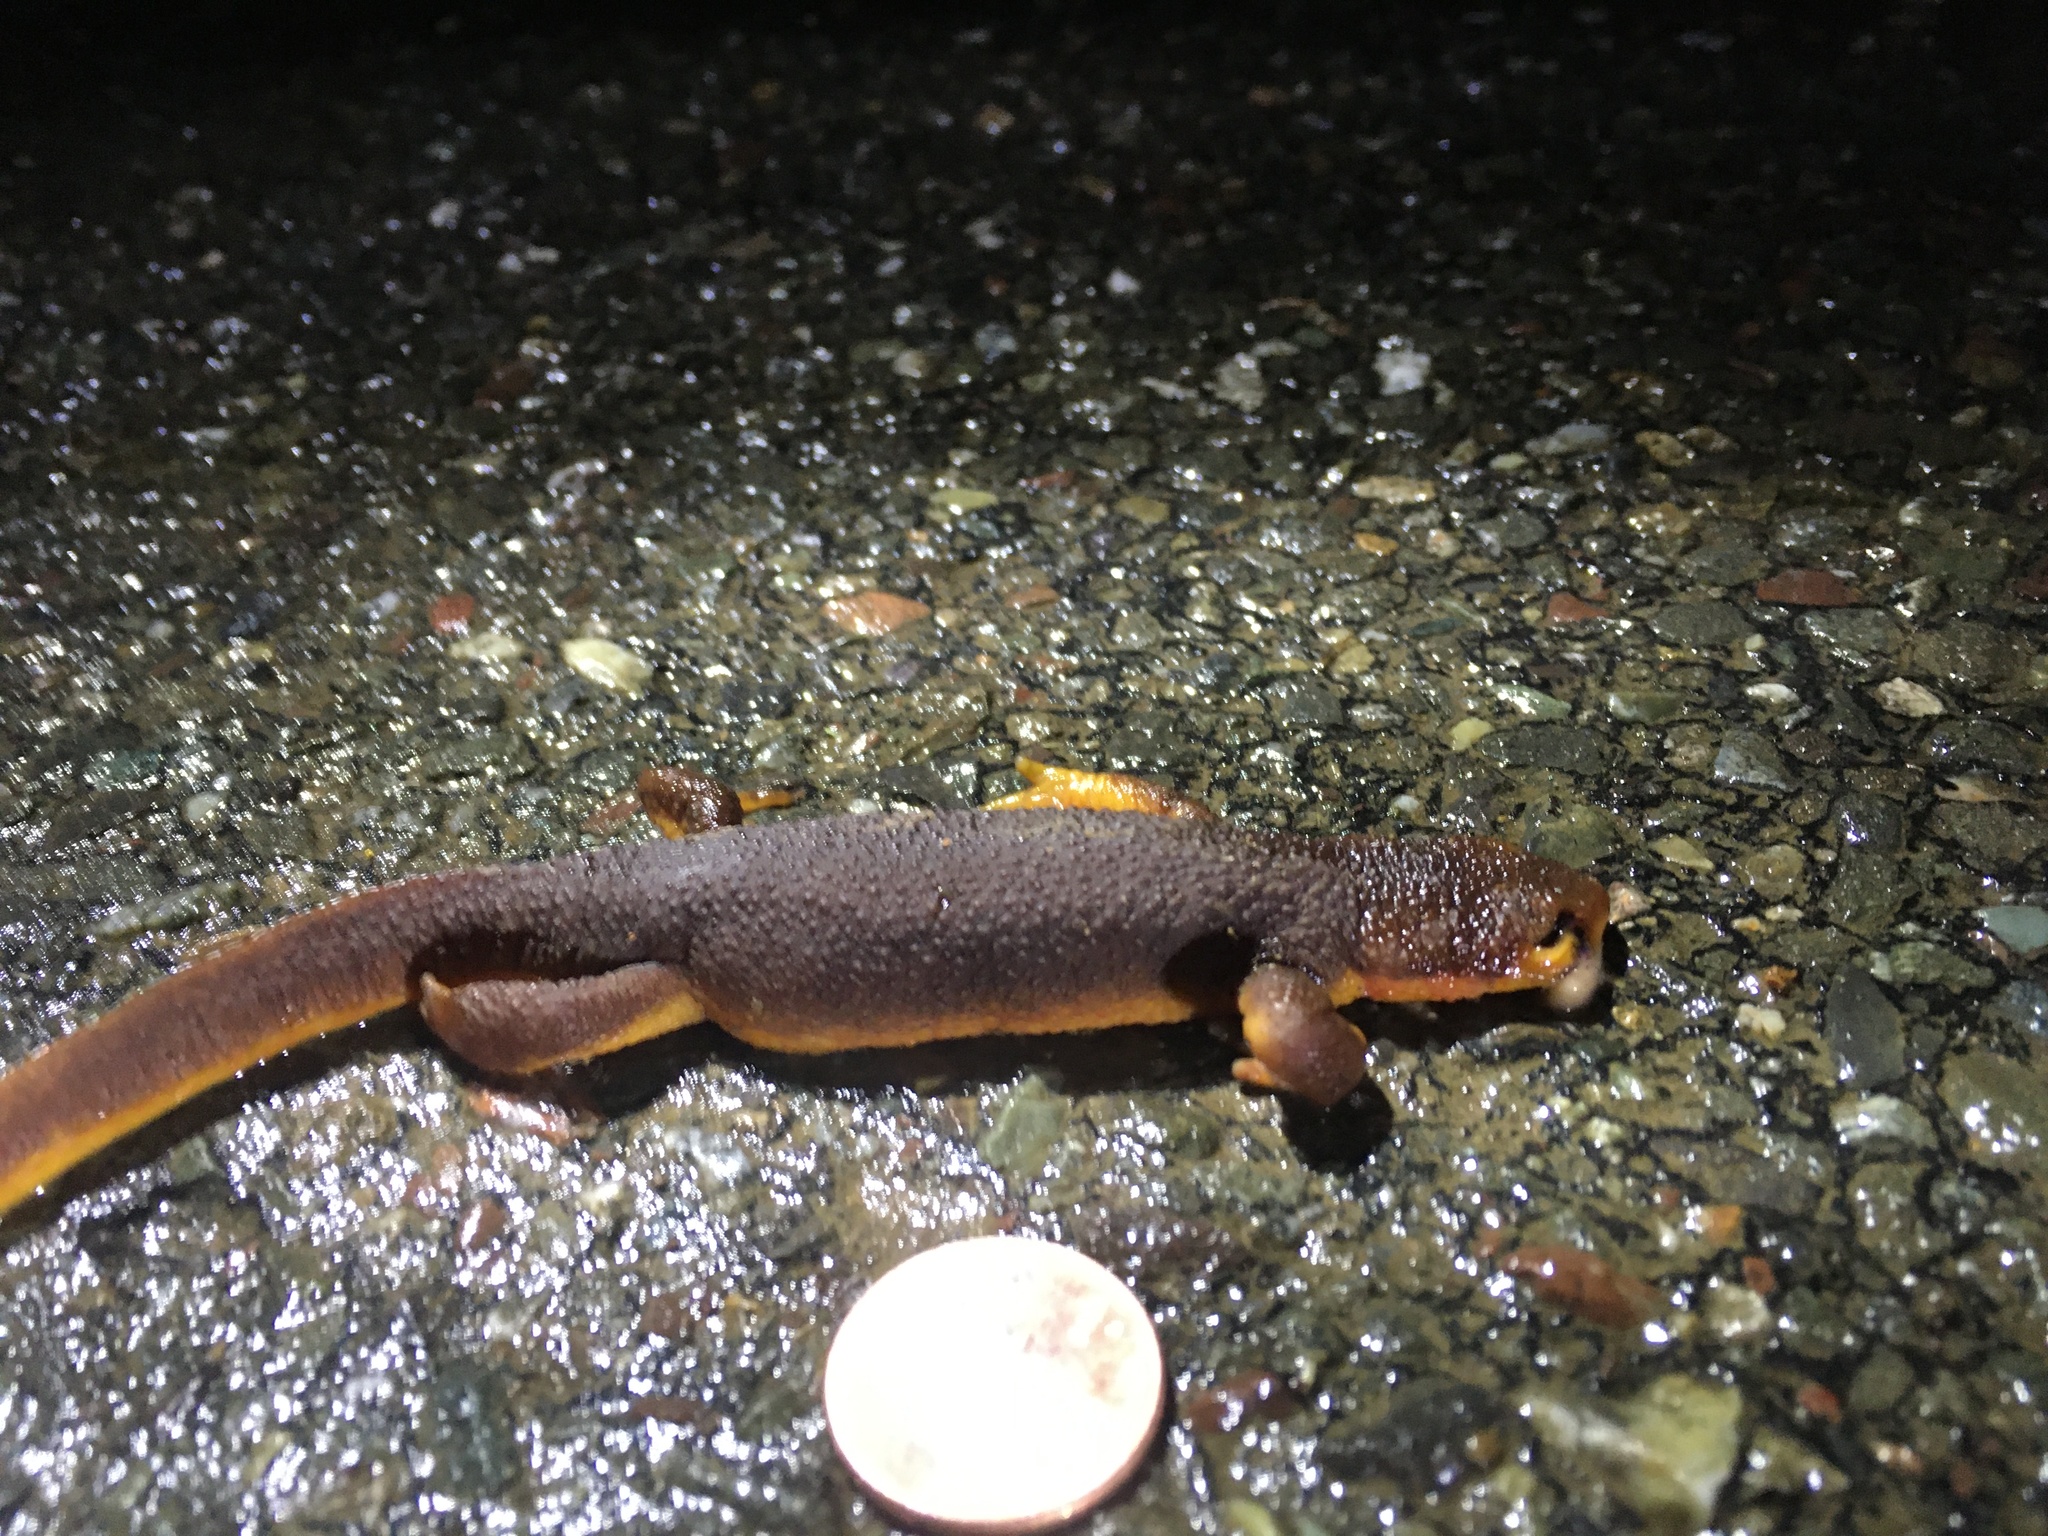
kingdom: Animalia
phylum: Chordata
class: Amphibia
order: Caudata
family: Salamandridae
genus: Taricha
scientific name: Taricha torosa
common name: California newt
